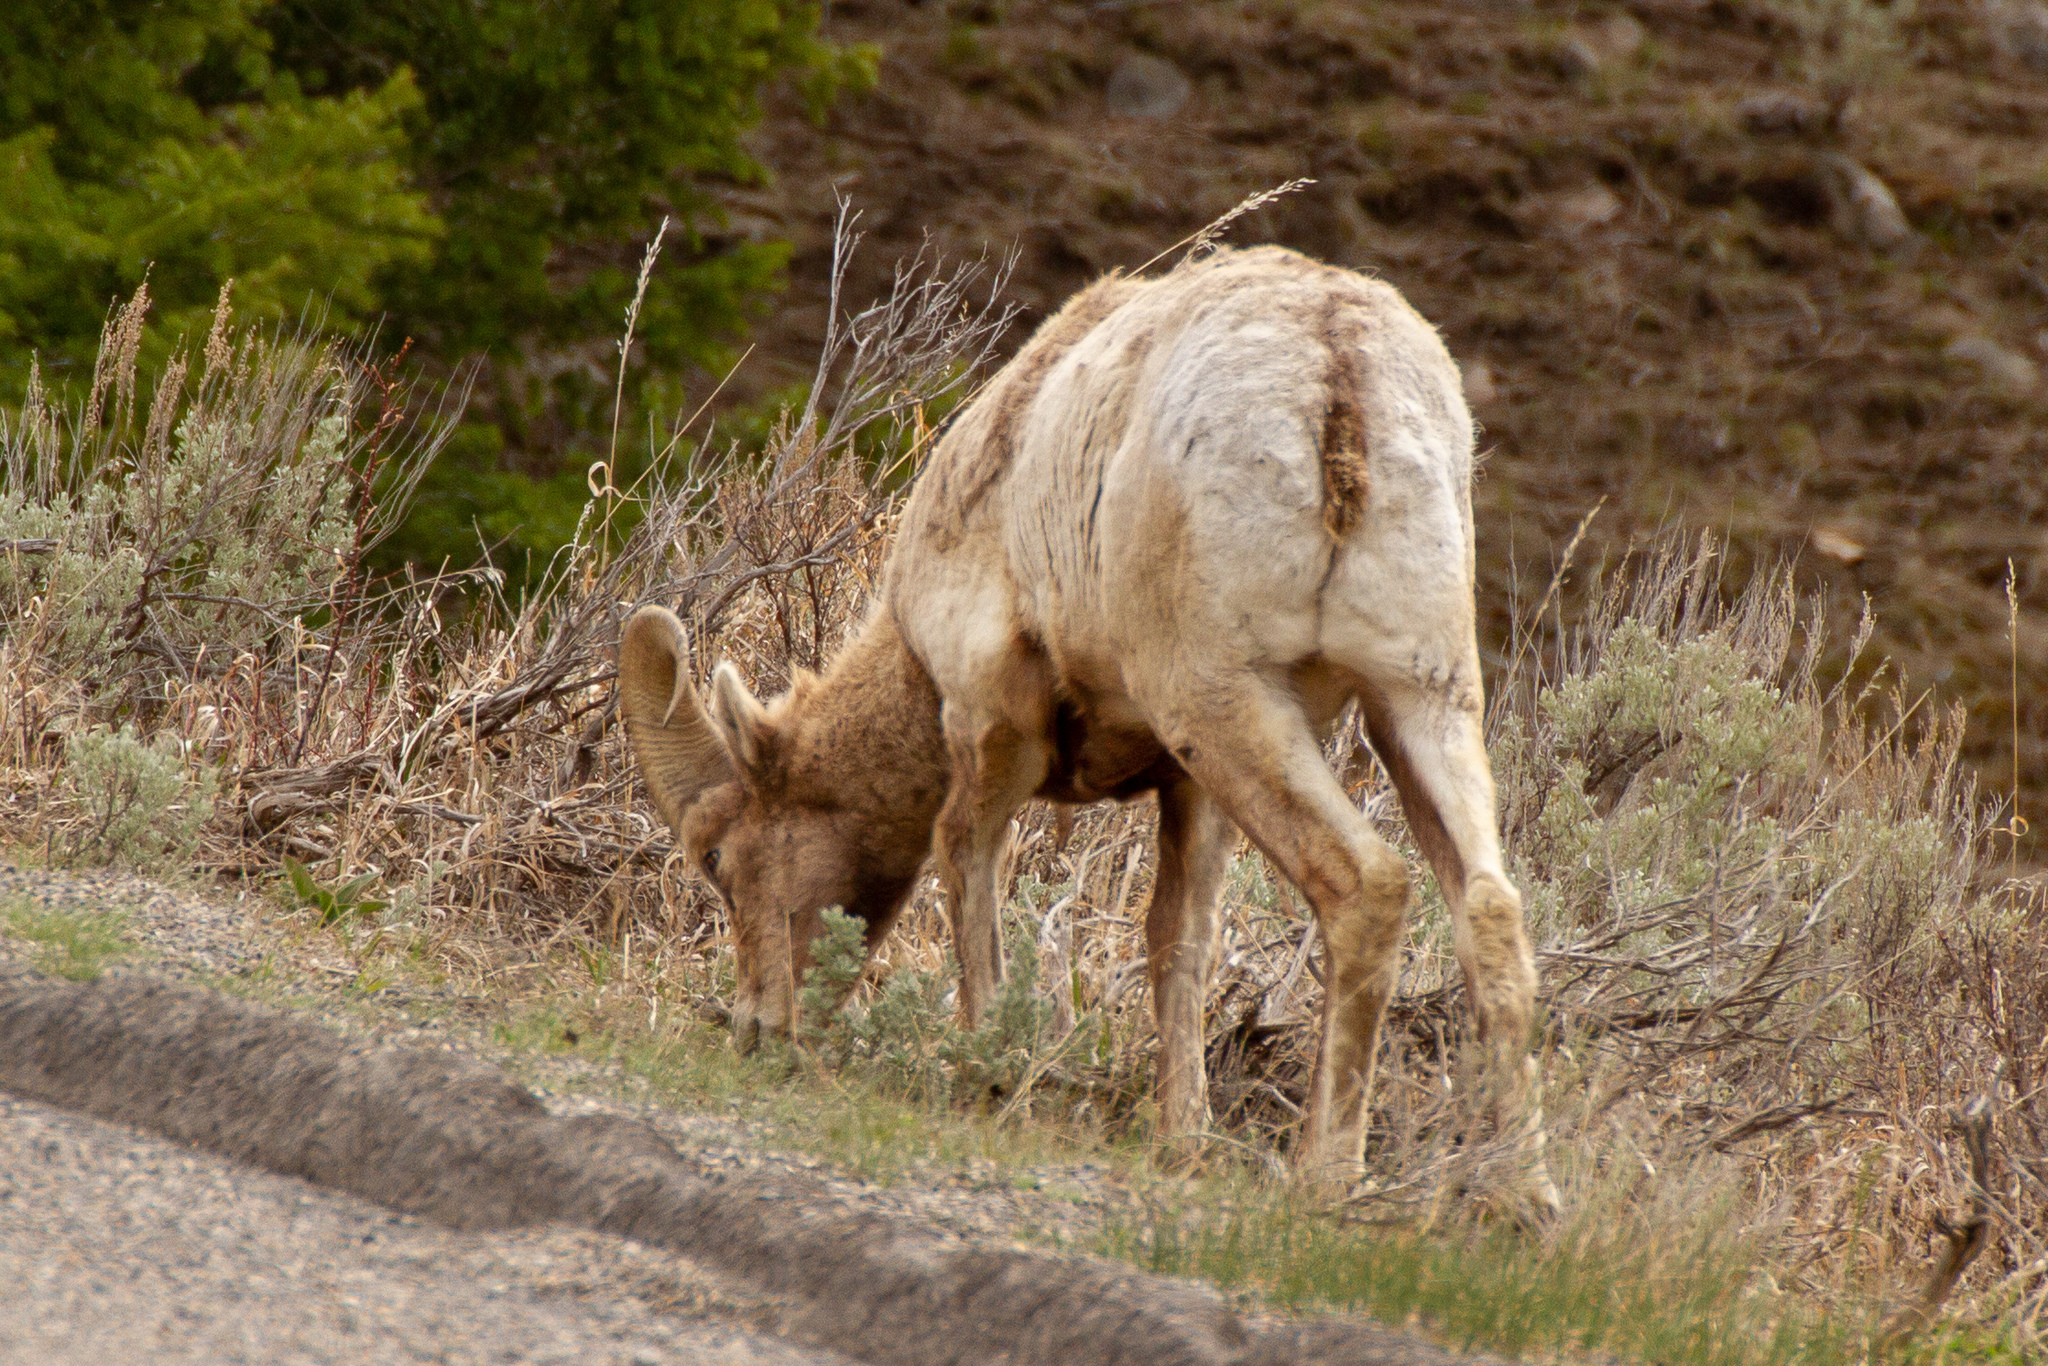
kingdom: Animalia
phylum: Chordata
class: Mammalia
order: Artiodactyla
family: Bovidae
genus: Ovis
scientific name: Ovis canadensis
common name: Bighorn sheep
